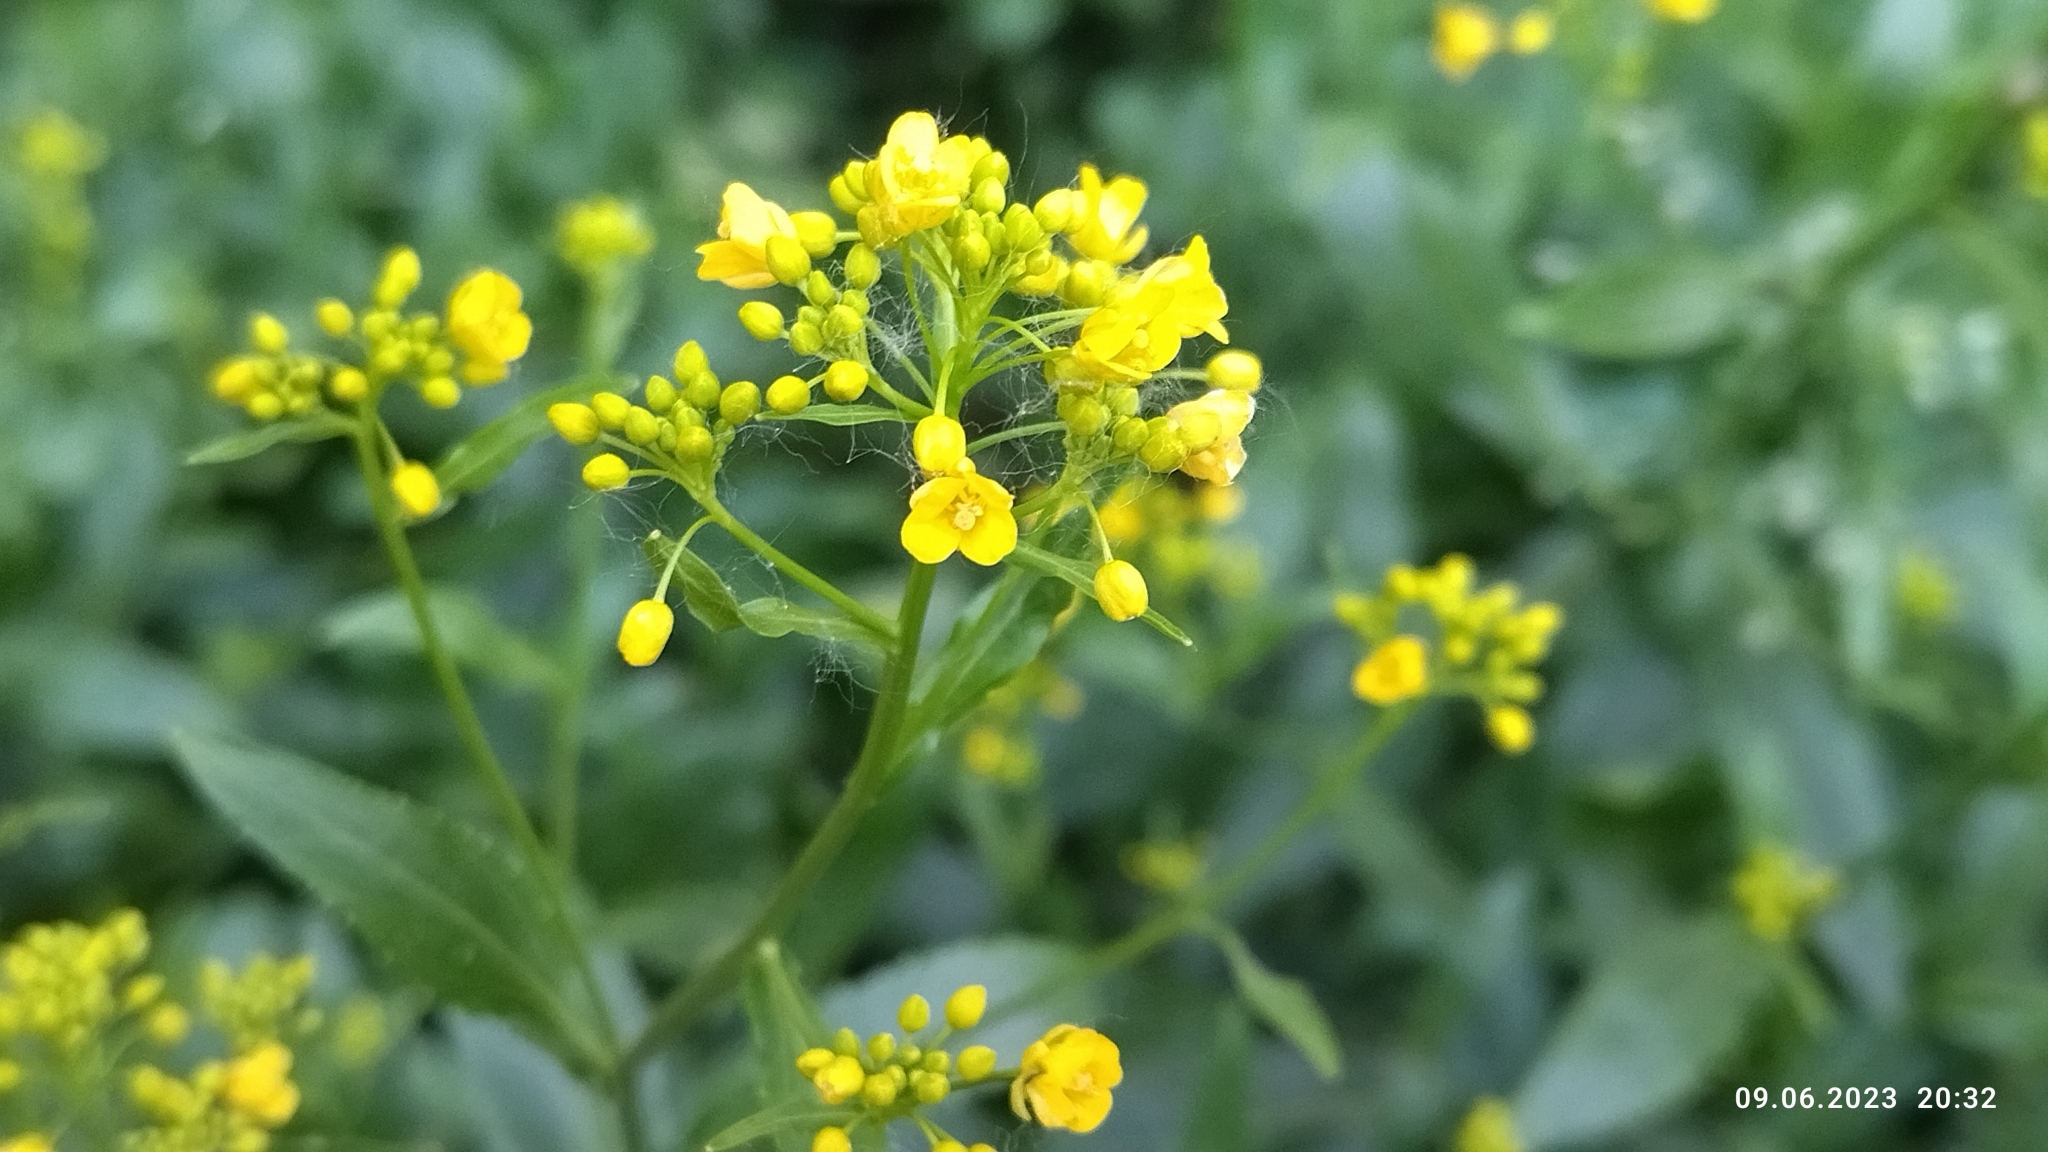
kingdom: Plantae
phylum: Tracheophyta
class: Magnoliopsida
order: Brassicales
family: Brassicaceae
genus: Rorippa
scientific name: Rorippa austriaca
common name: Austrian yellow-cress
